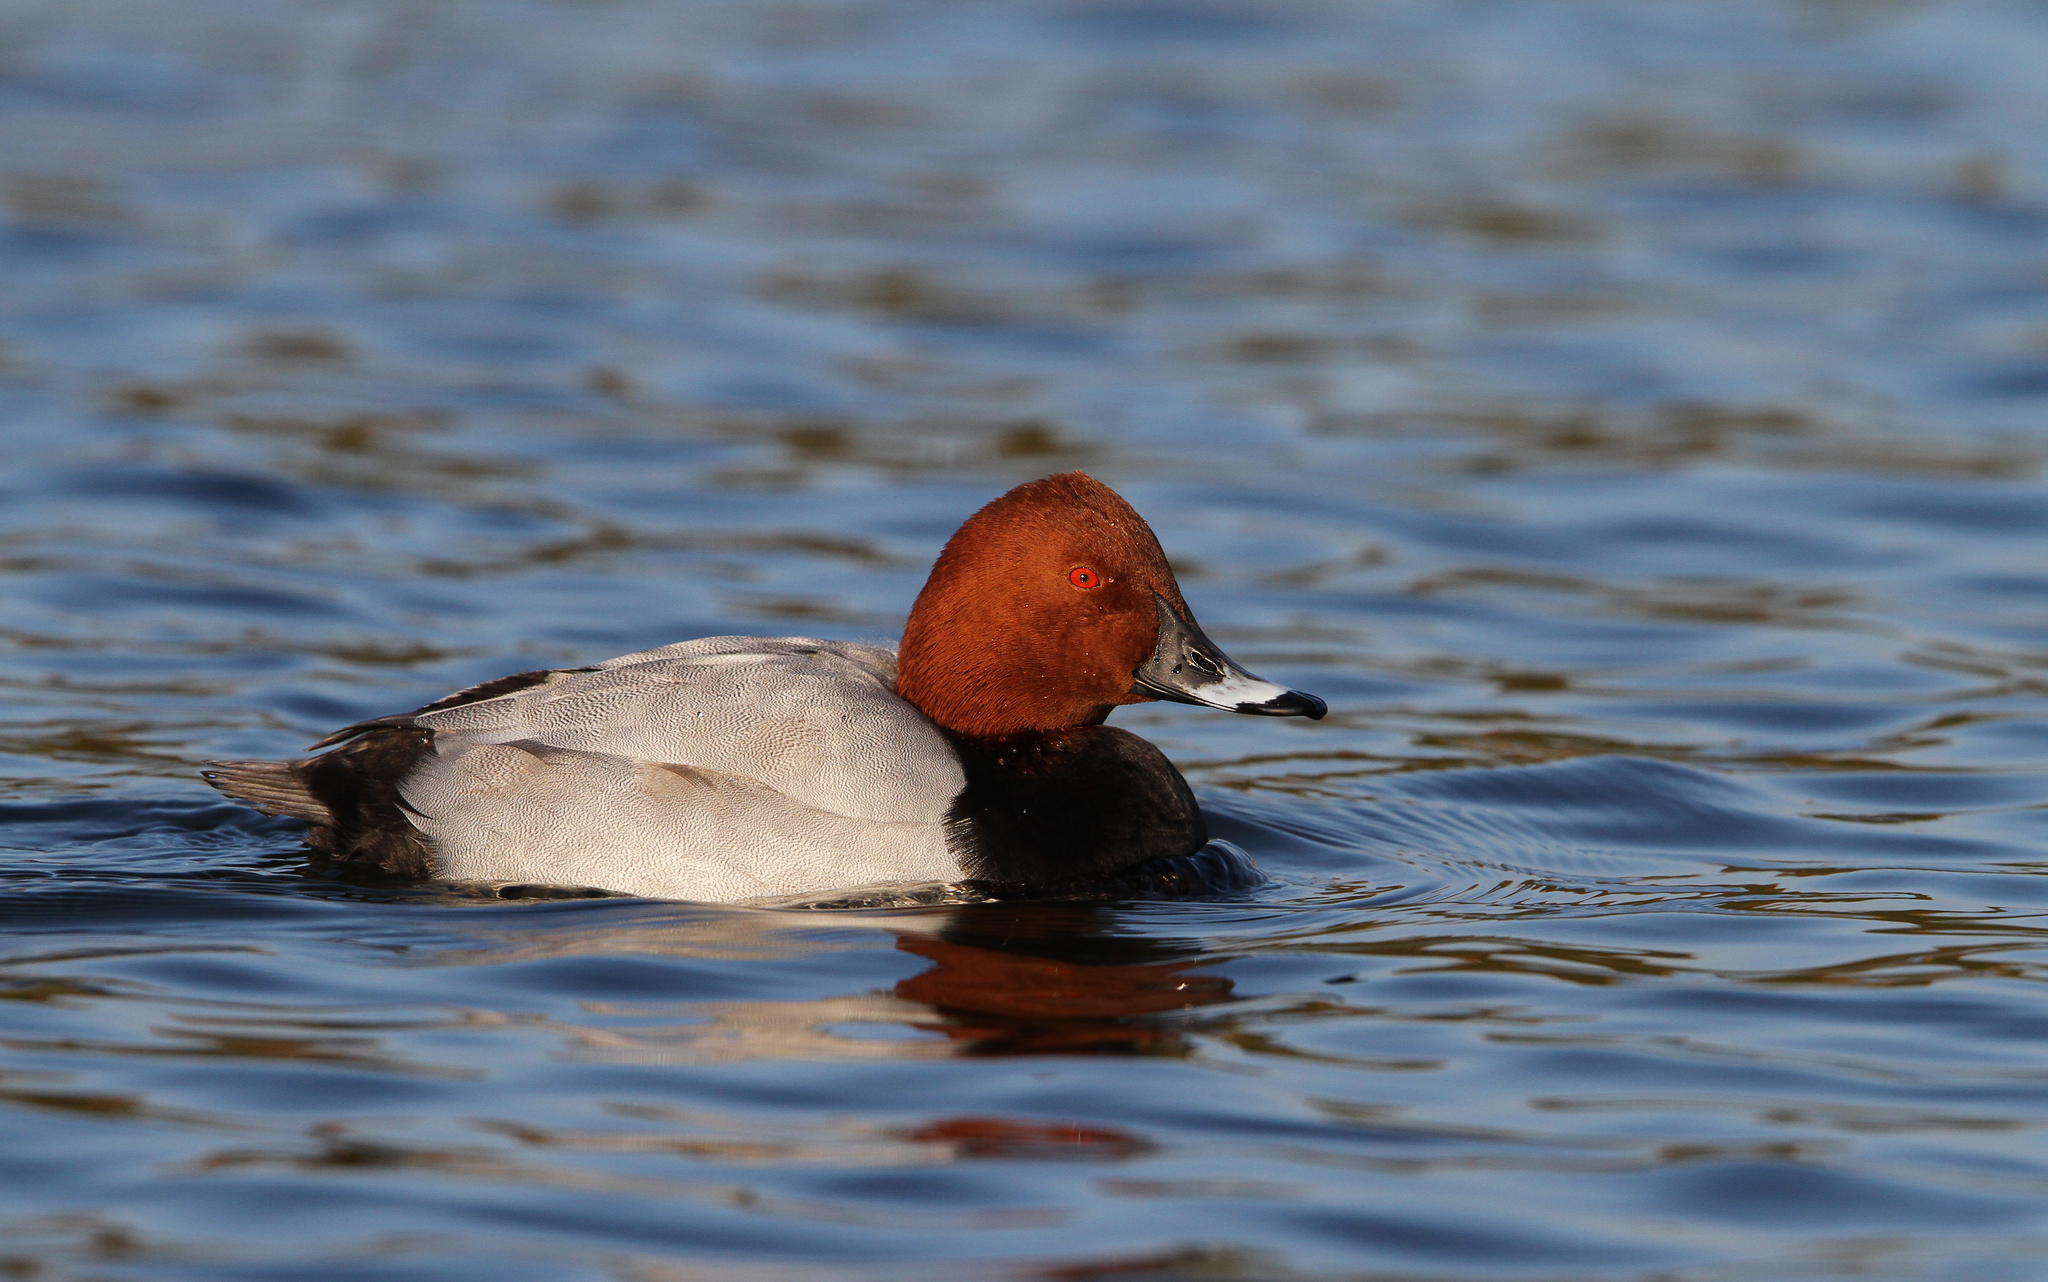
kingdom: Animalia
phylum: Chordata
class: Aves
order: Anseriformes
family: Anatidae
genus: Aythya
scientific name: Aythya ferina
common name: Common pochard
